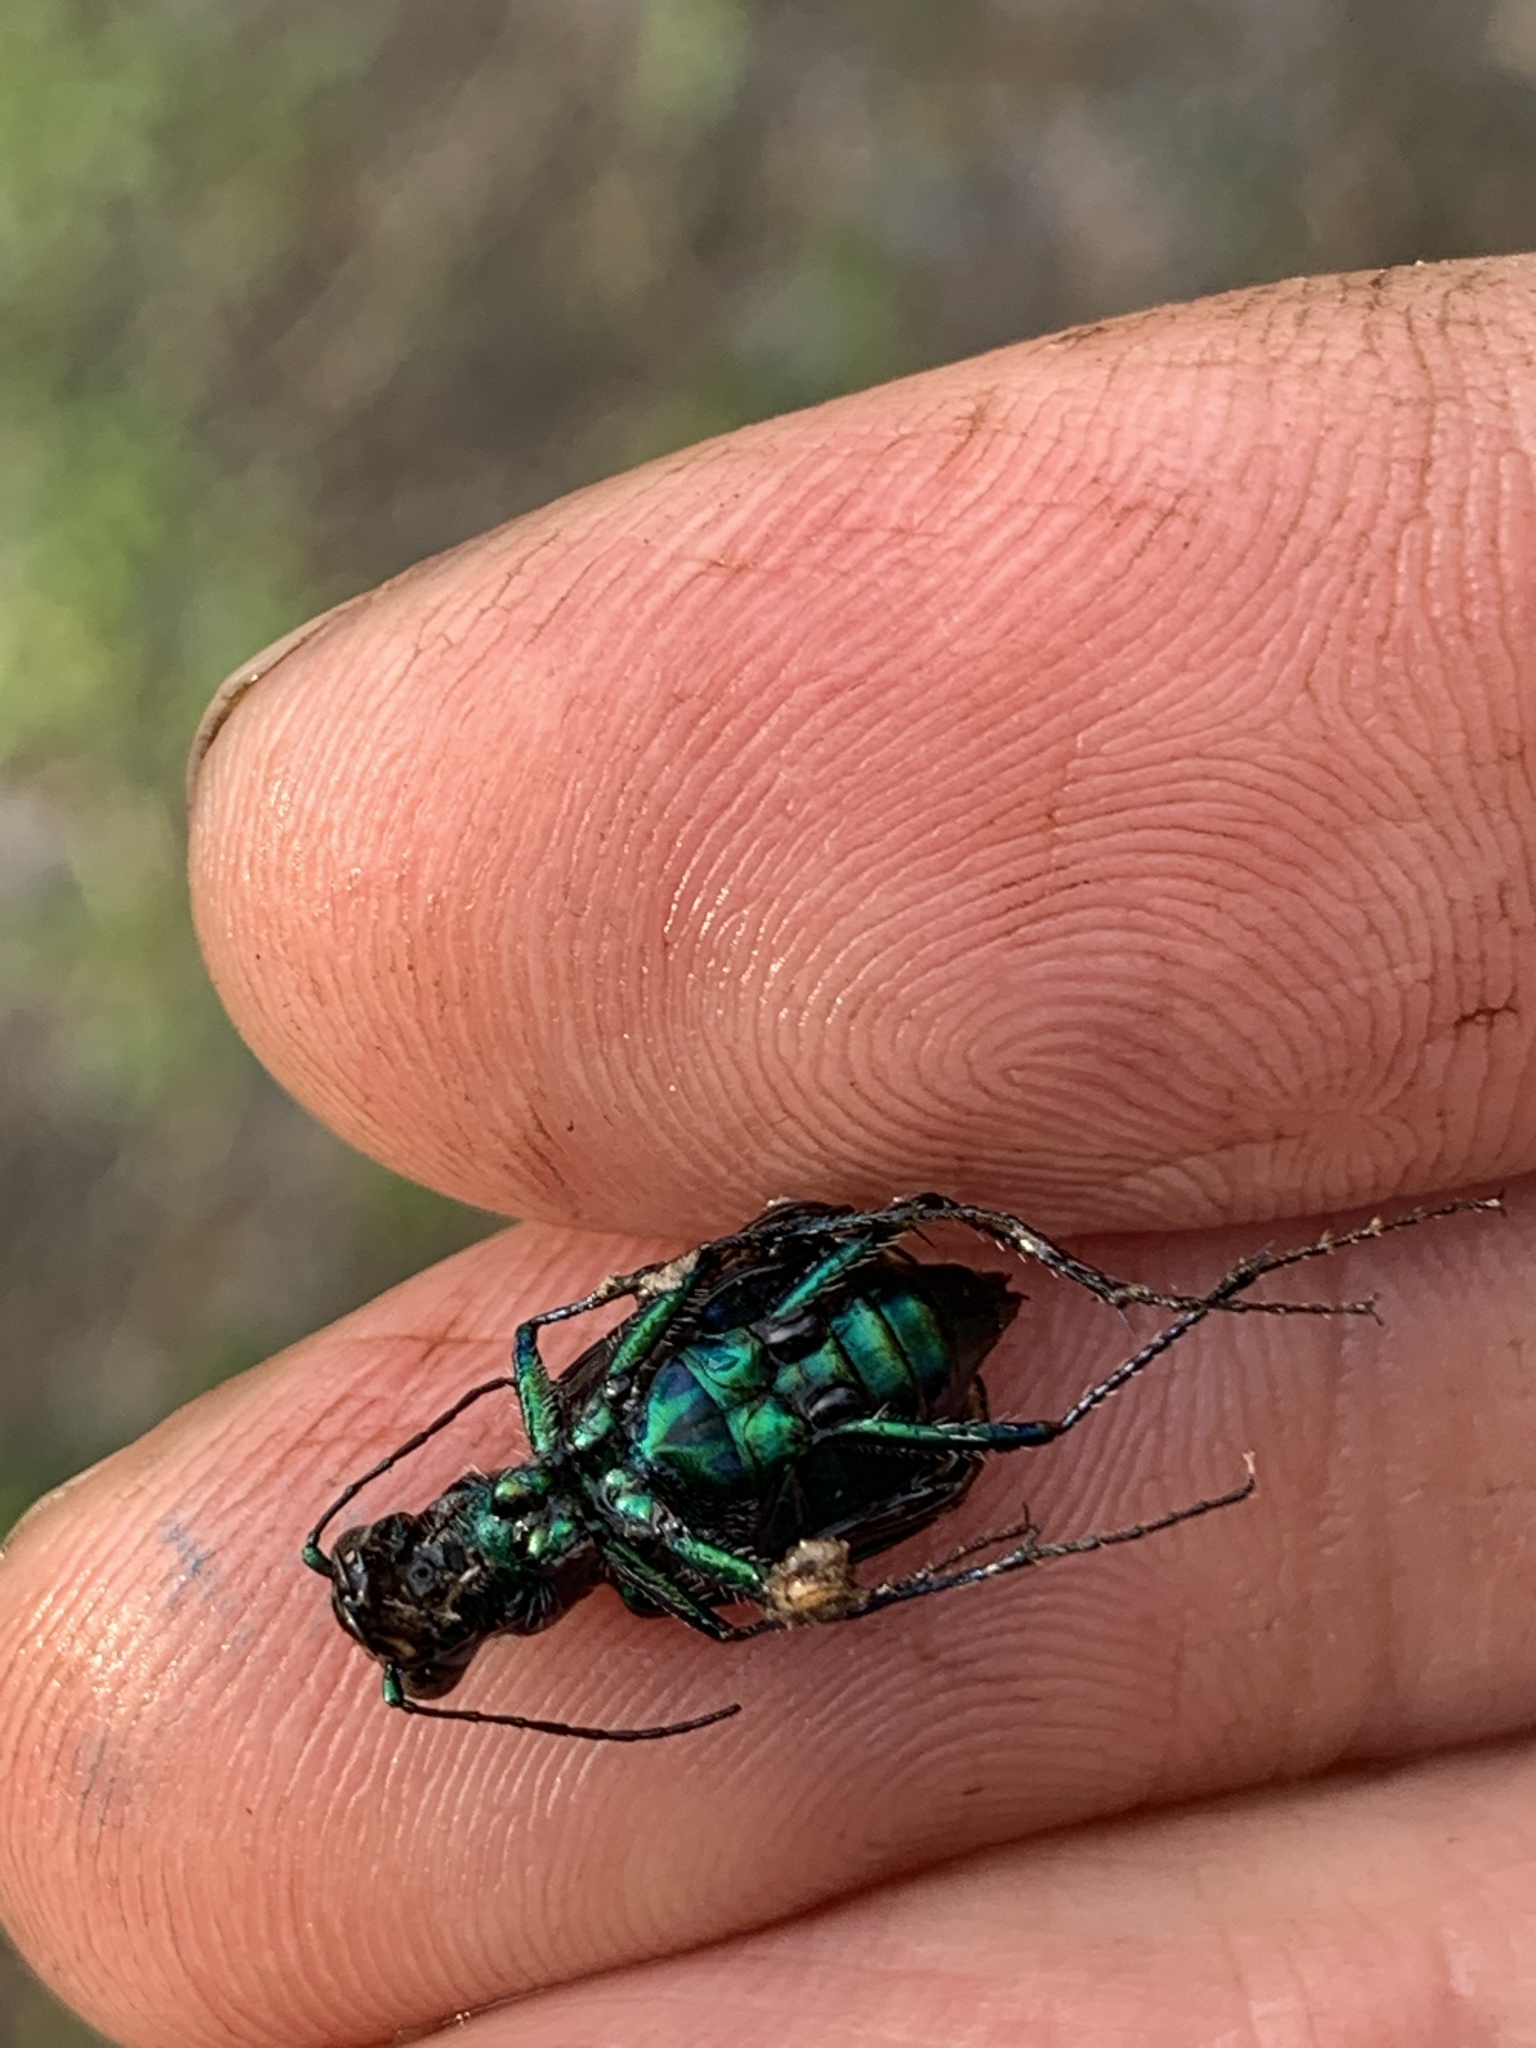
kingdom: Animalia
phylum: Arthropoda
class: Insecta
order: Coleoptera
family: Carabidae
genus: Cicindela
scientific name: Cicindela sexguttata
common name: Six-spotted tiger beetle
